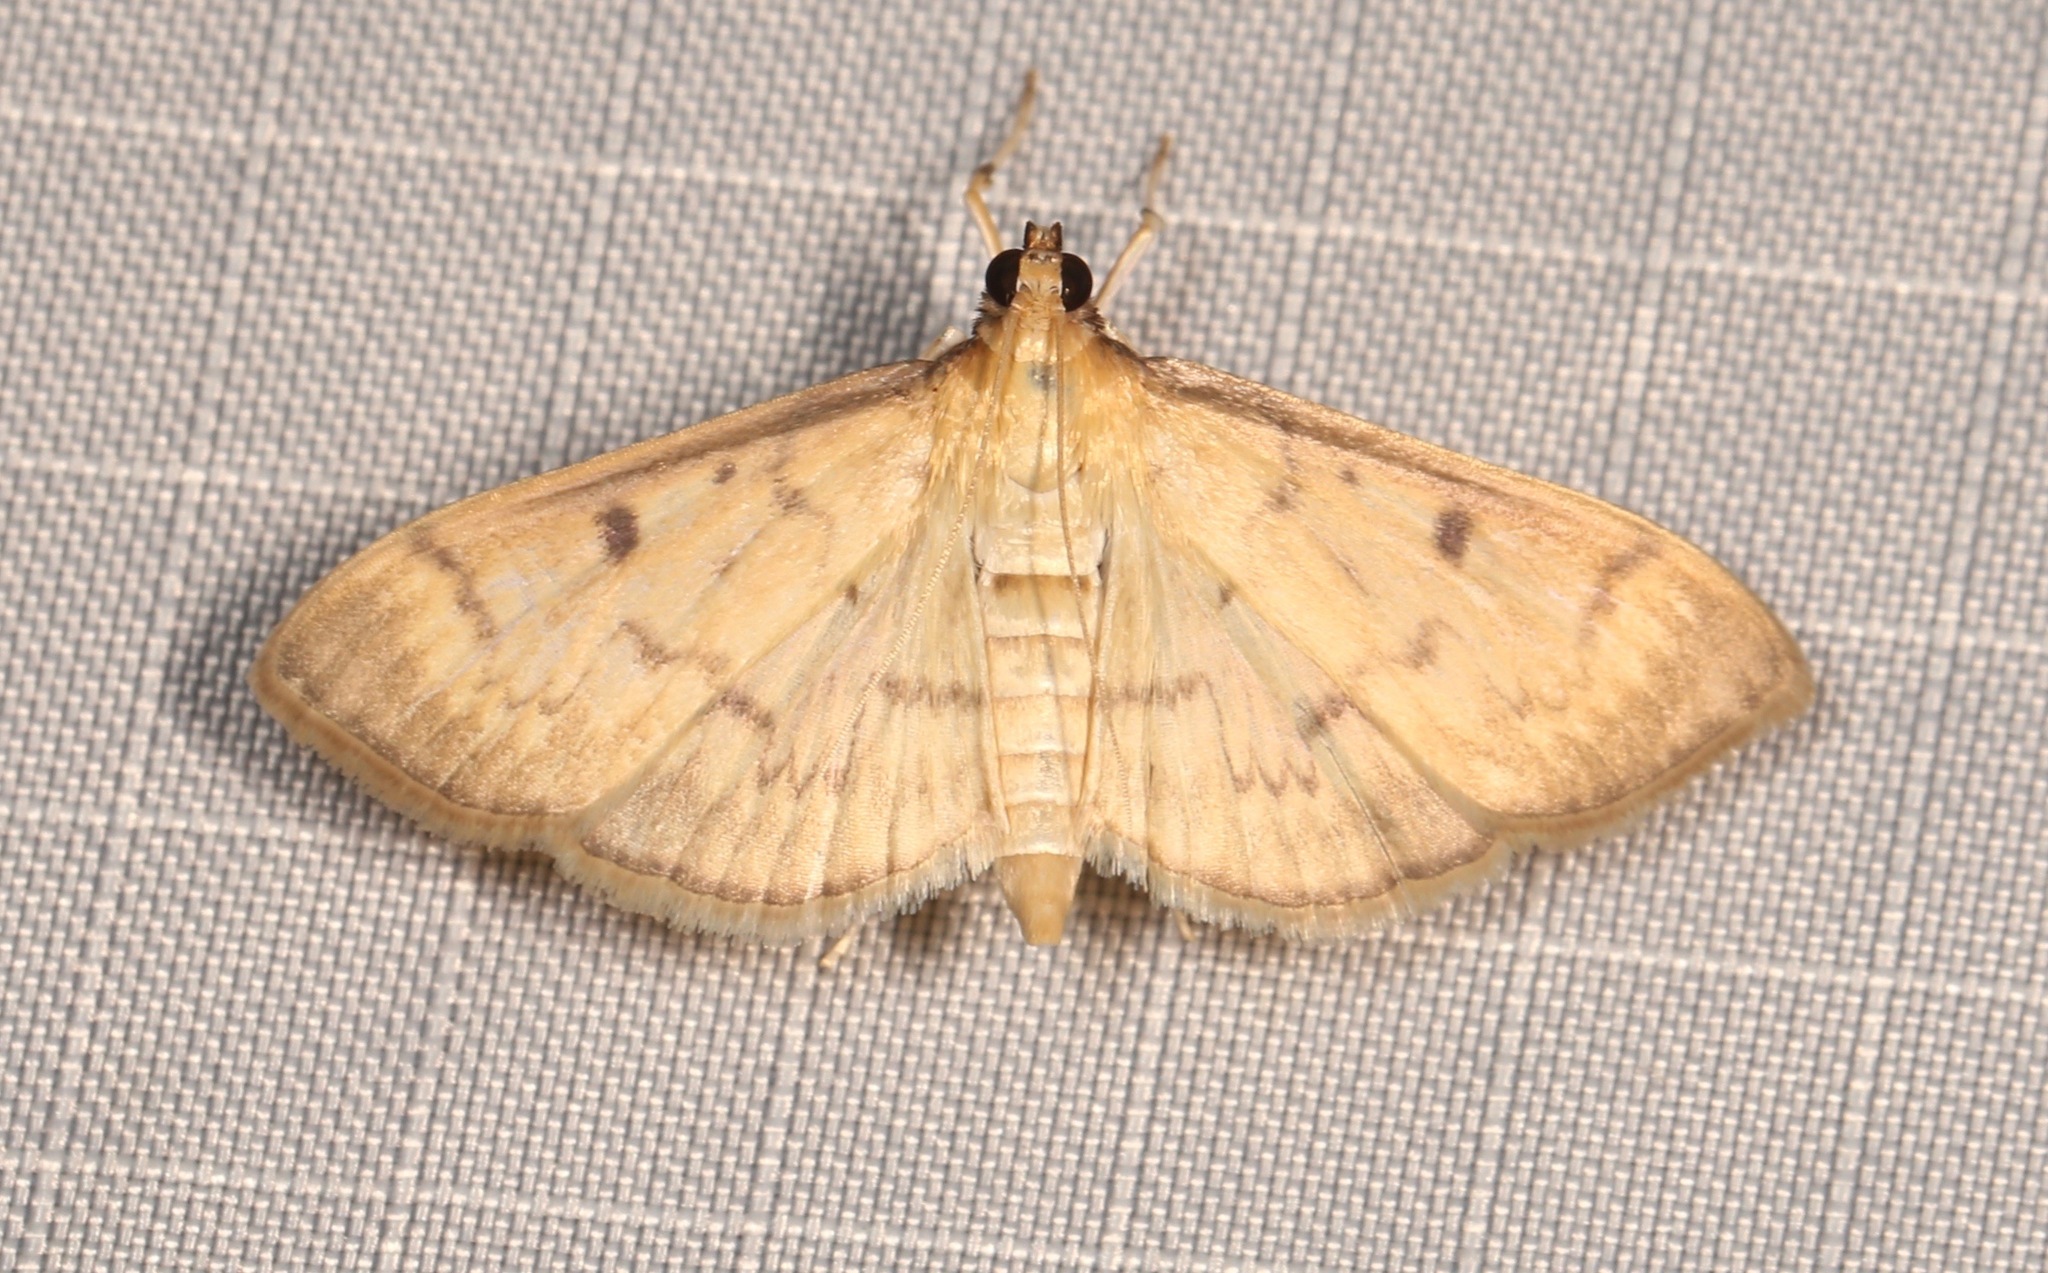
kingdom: Animalia
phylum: Arthropoda
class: Insecta
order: Lepidoptera
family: Crambidae
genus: Herpetogramma
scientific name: Herpetogramma fluctuosalis
